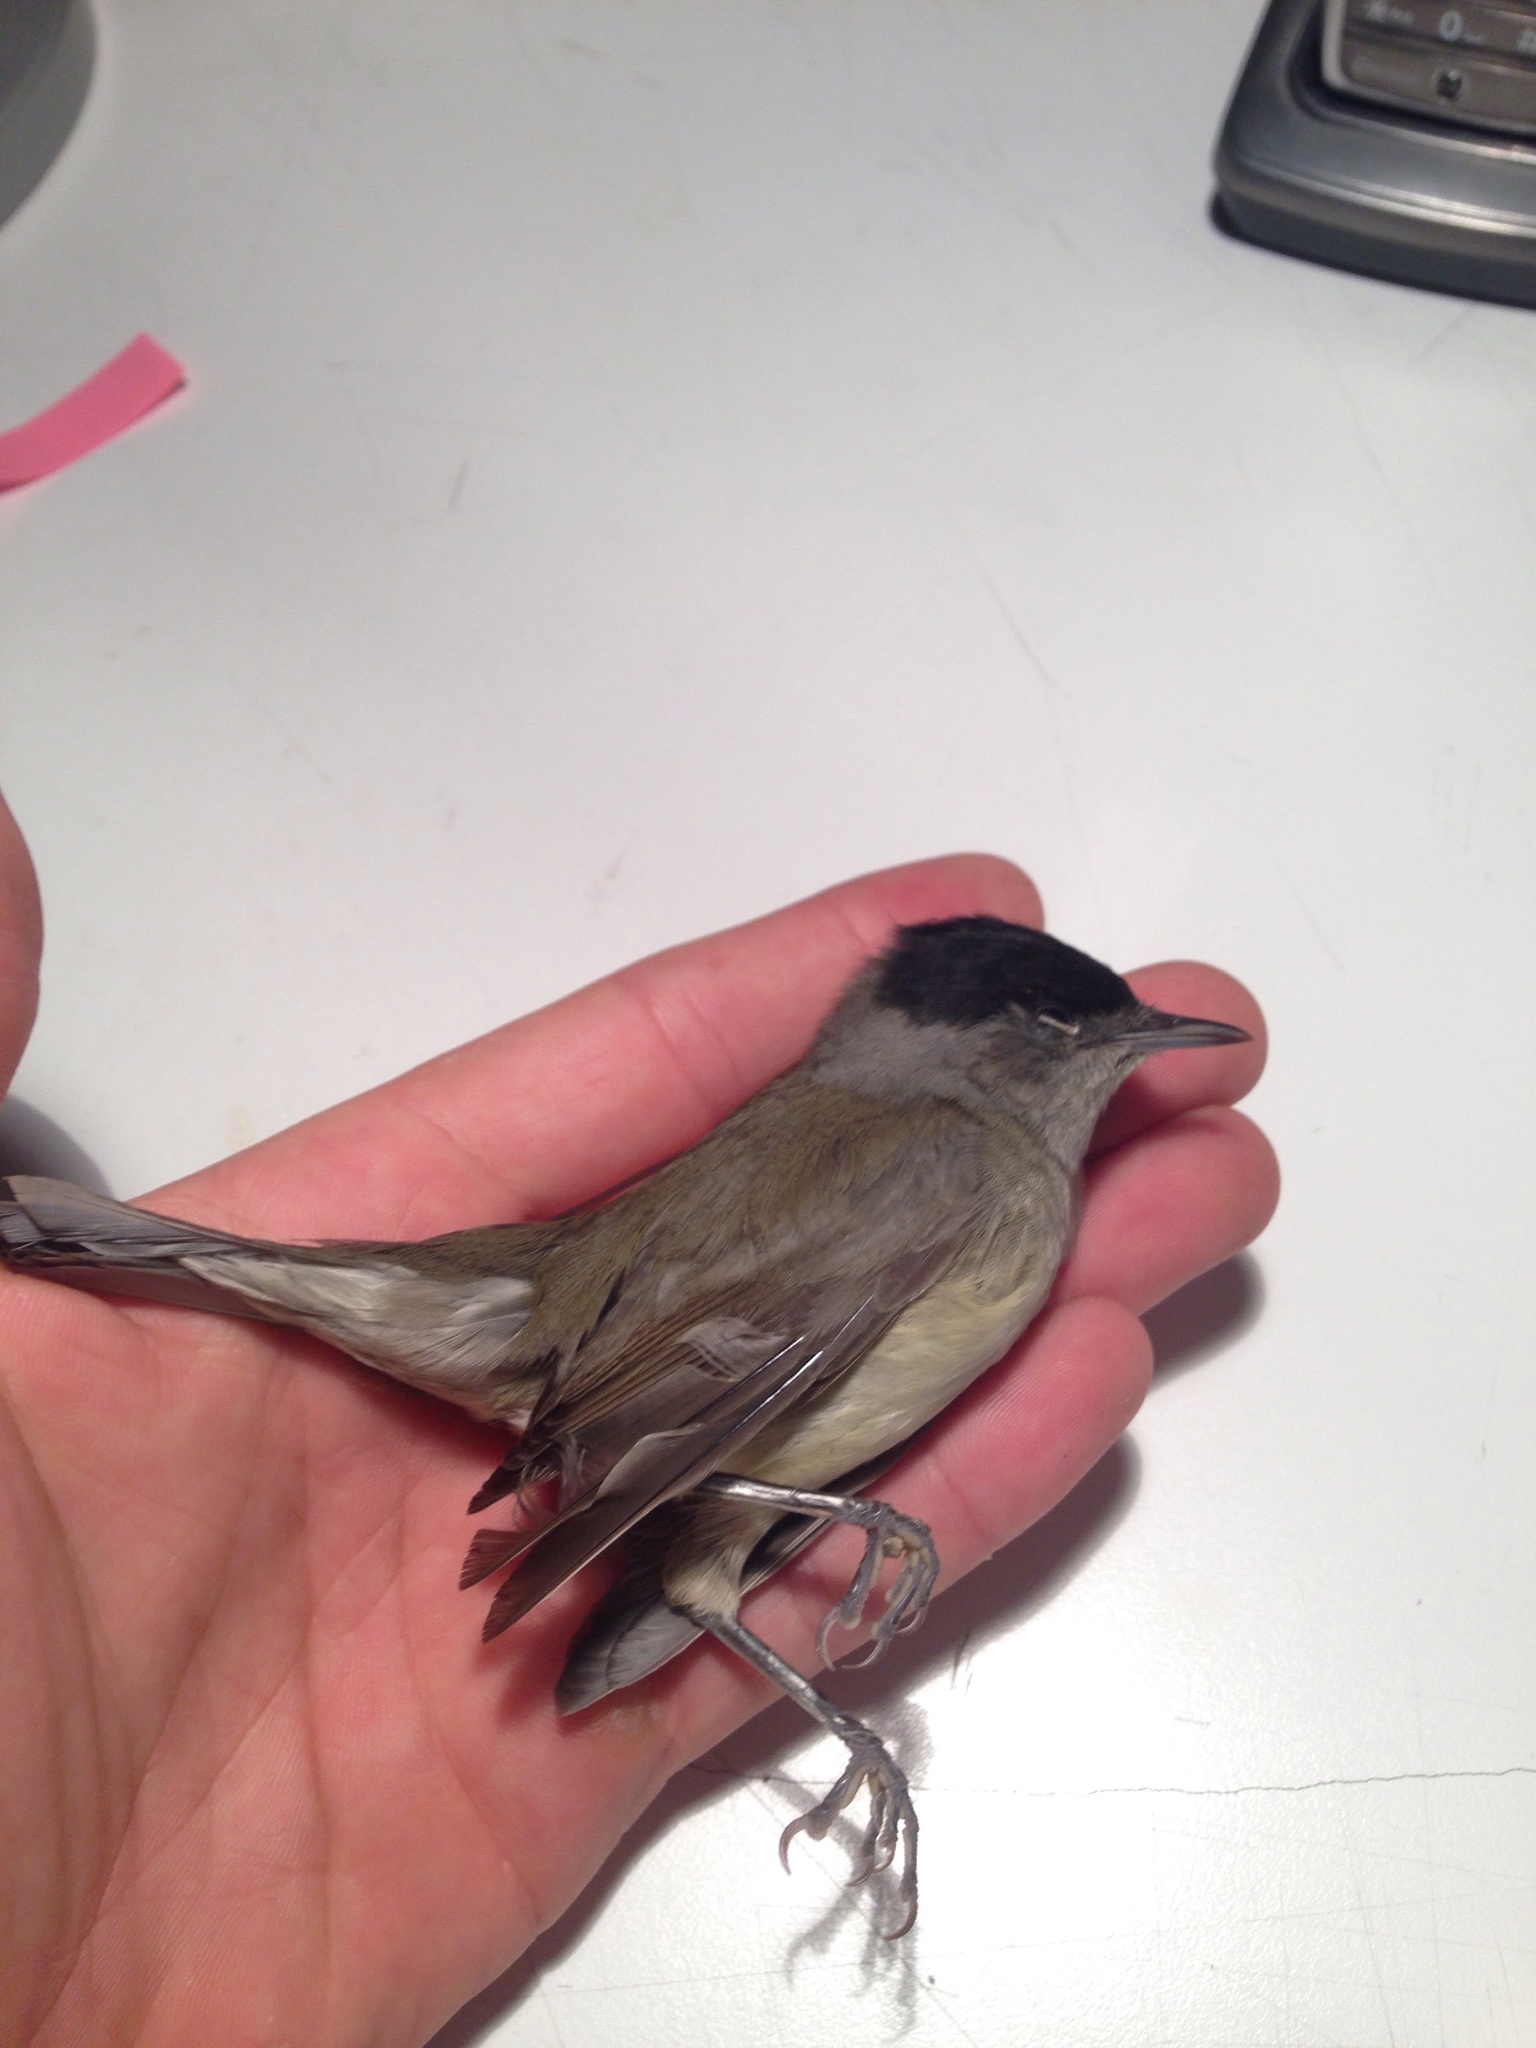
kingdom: Animalia
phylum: Chordata
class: Aves
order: Passeriformes
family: Sylviidae
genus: Sylvia
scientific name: Sylvia atricapilla
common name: Eurasian blackcap
